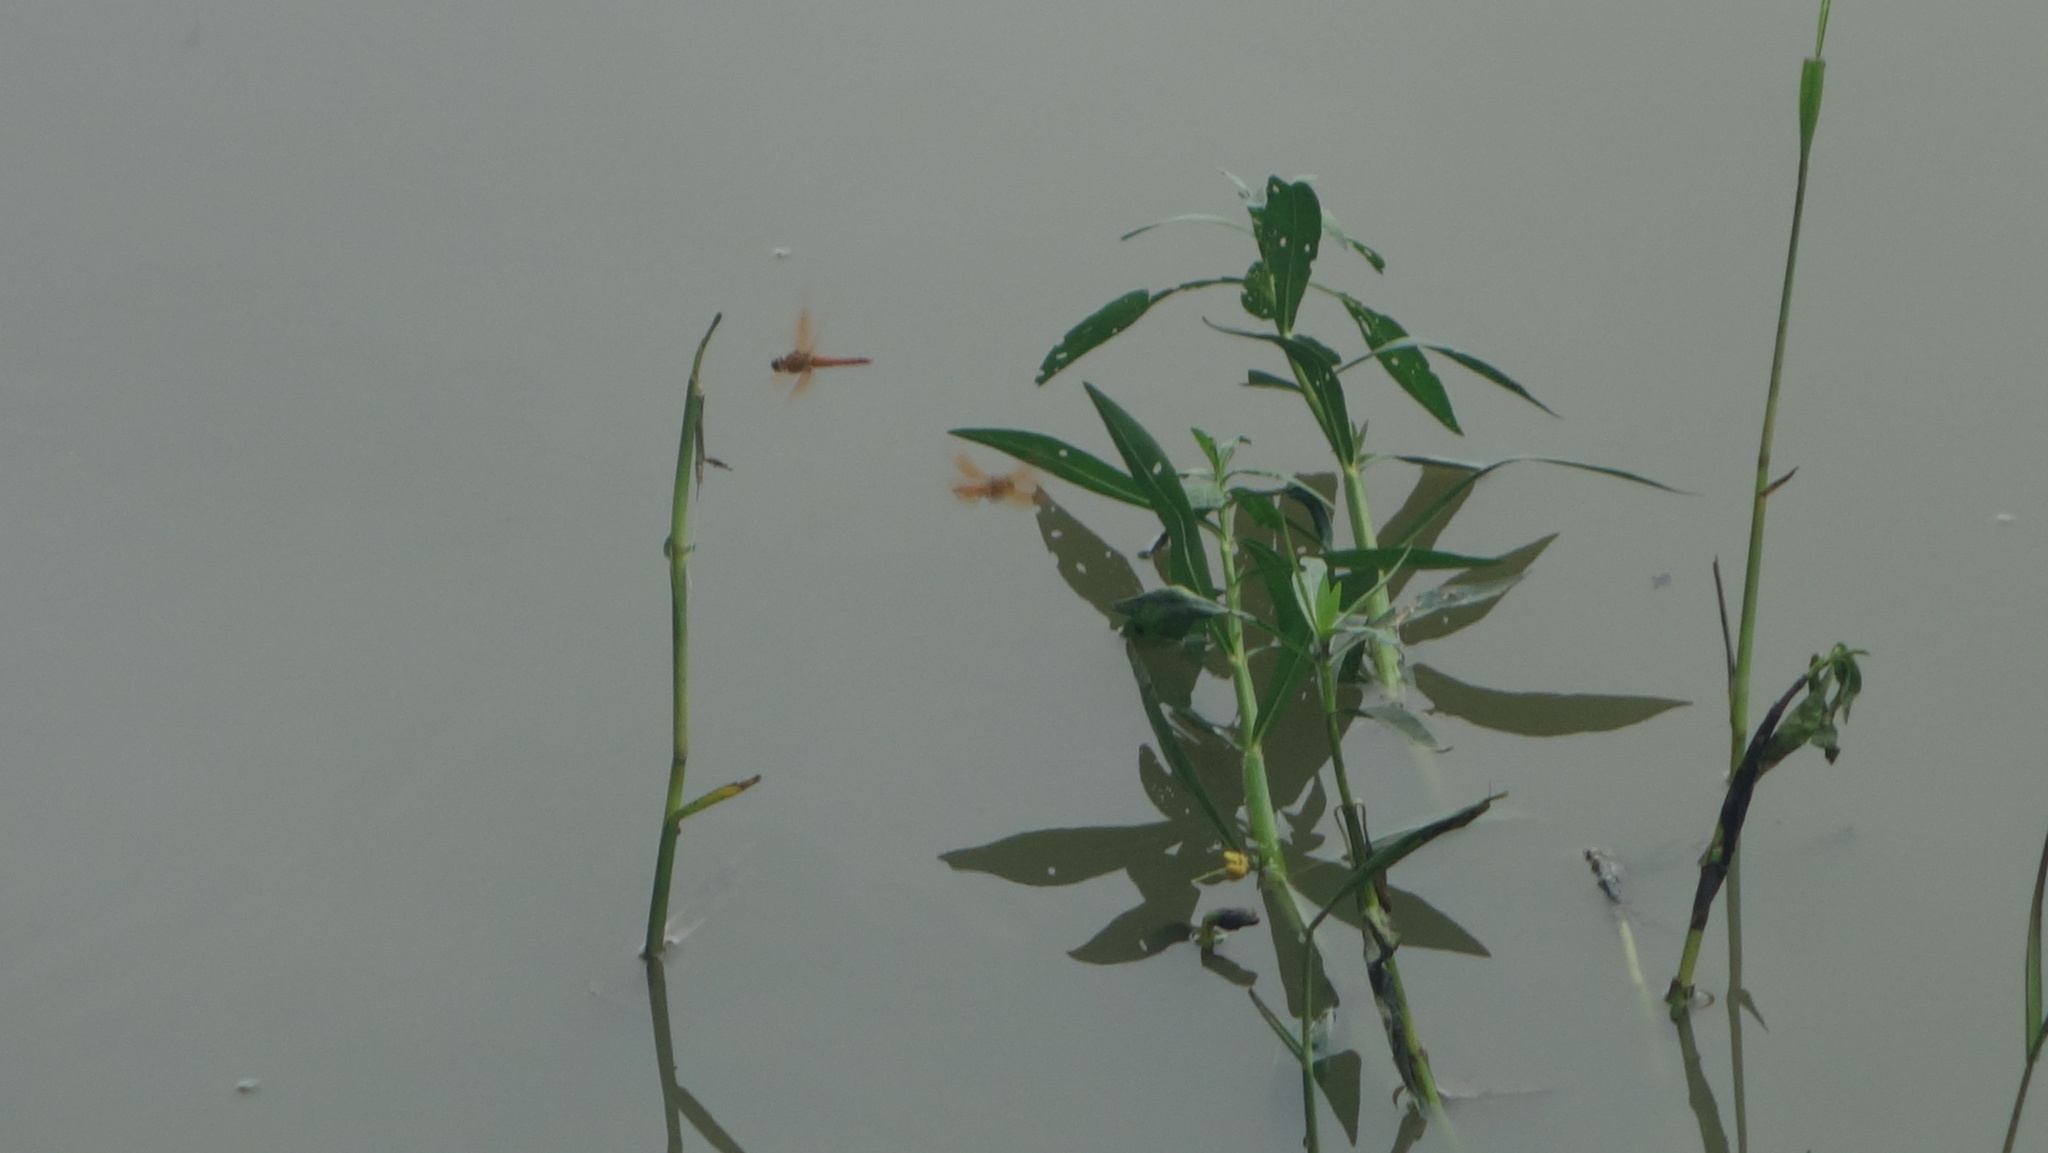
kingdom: Animalia
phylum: Arthropoda
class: Insecta
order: Odonata
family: Libellulidae
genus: Brachythemis
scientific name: Brachythemis contaminata
